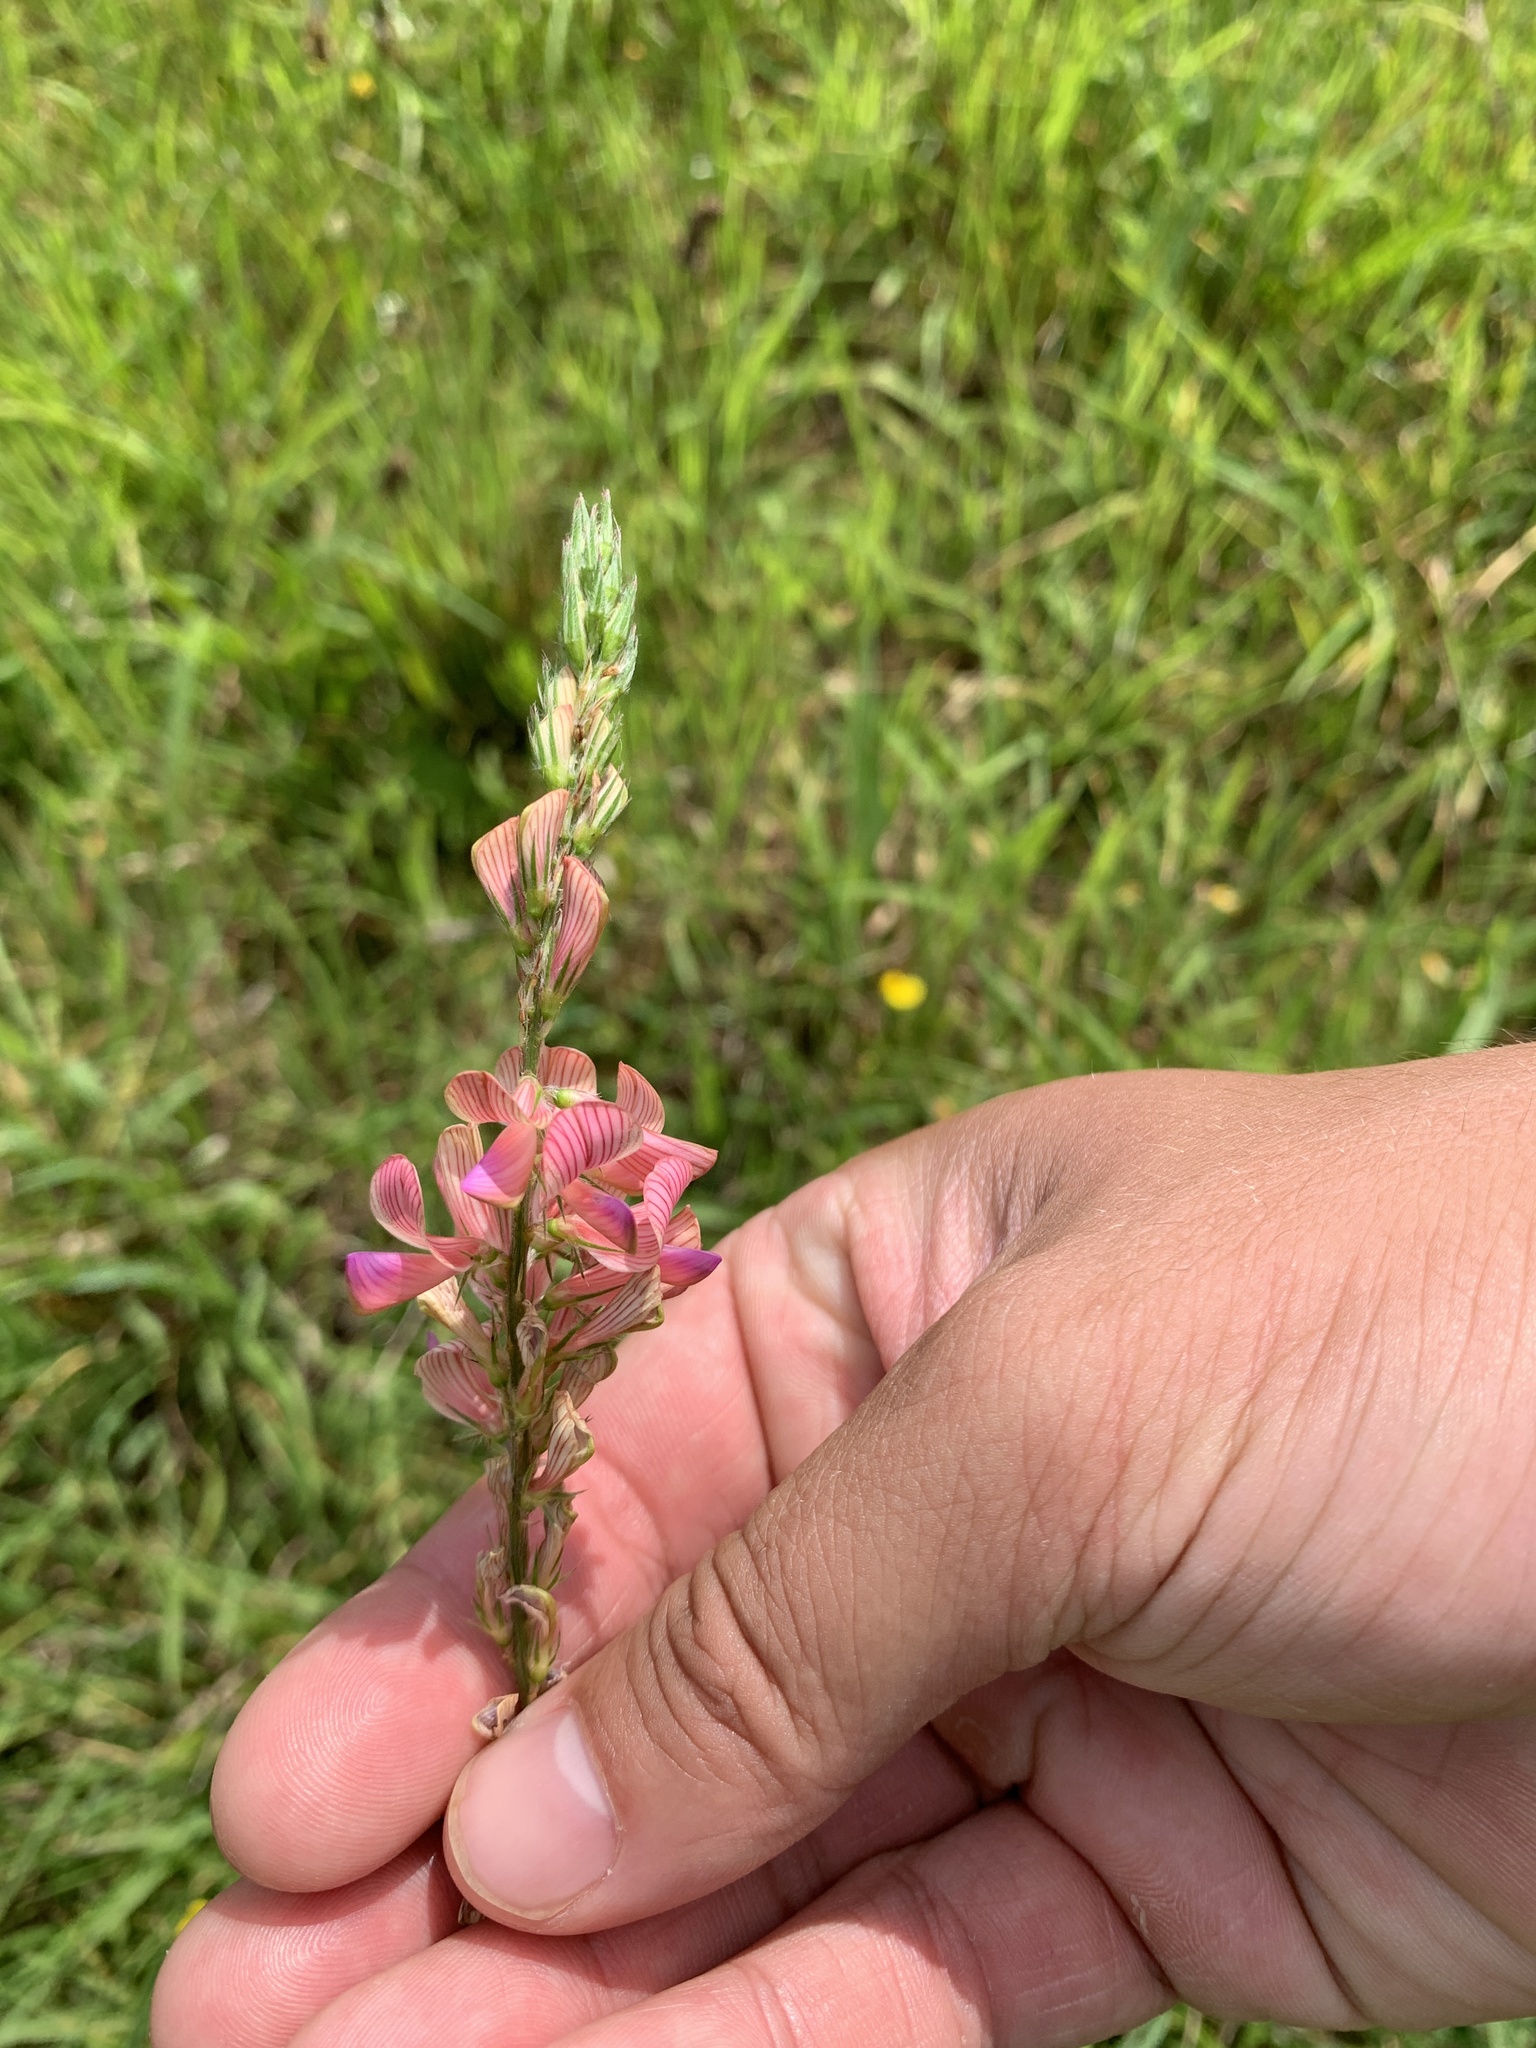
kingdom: Plantae
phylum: Tracheophyta
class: Magnoliopsida
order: Fabales
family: Fabaceae
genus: Onobrychis
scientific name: Onobrychis viciifolia
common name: Sainfoin
